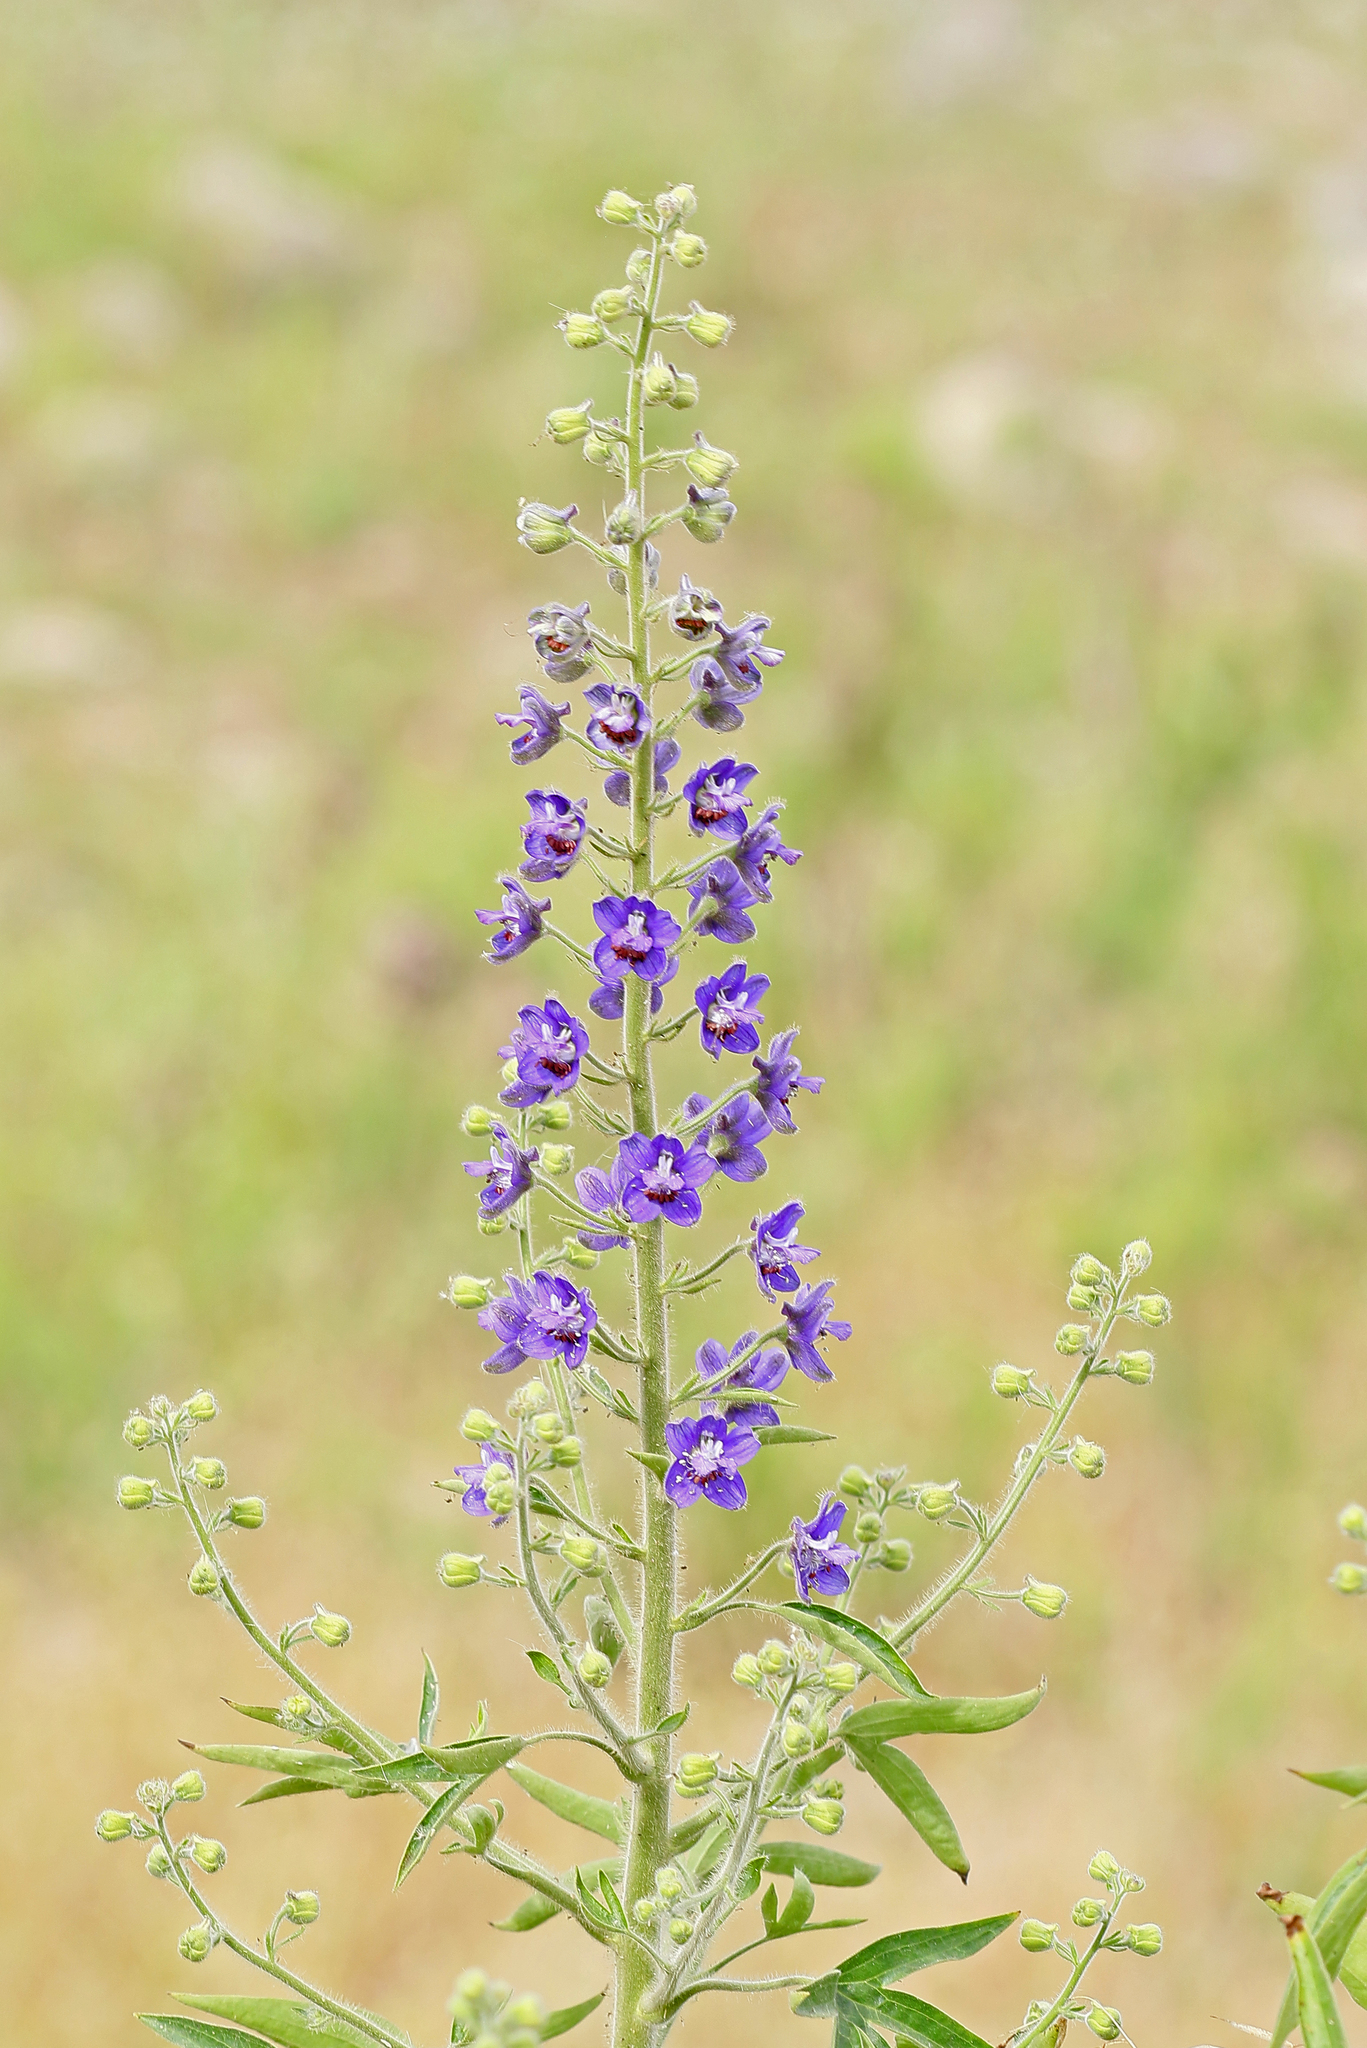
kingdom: Plantae
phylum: Tracheophyta
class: Magnoliopsida
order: Ranunculales
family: Ranunculaceae
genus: Staphisagria
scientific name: Staphisagria macrosperma
